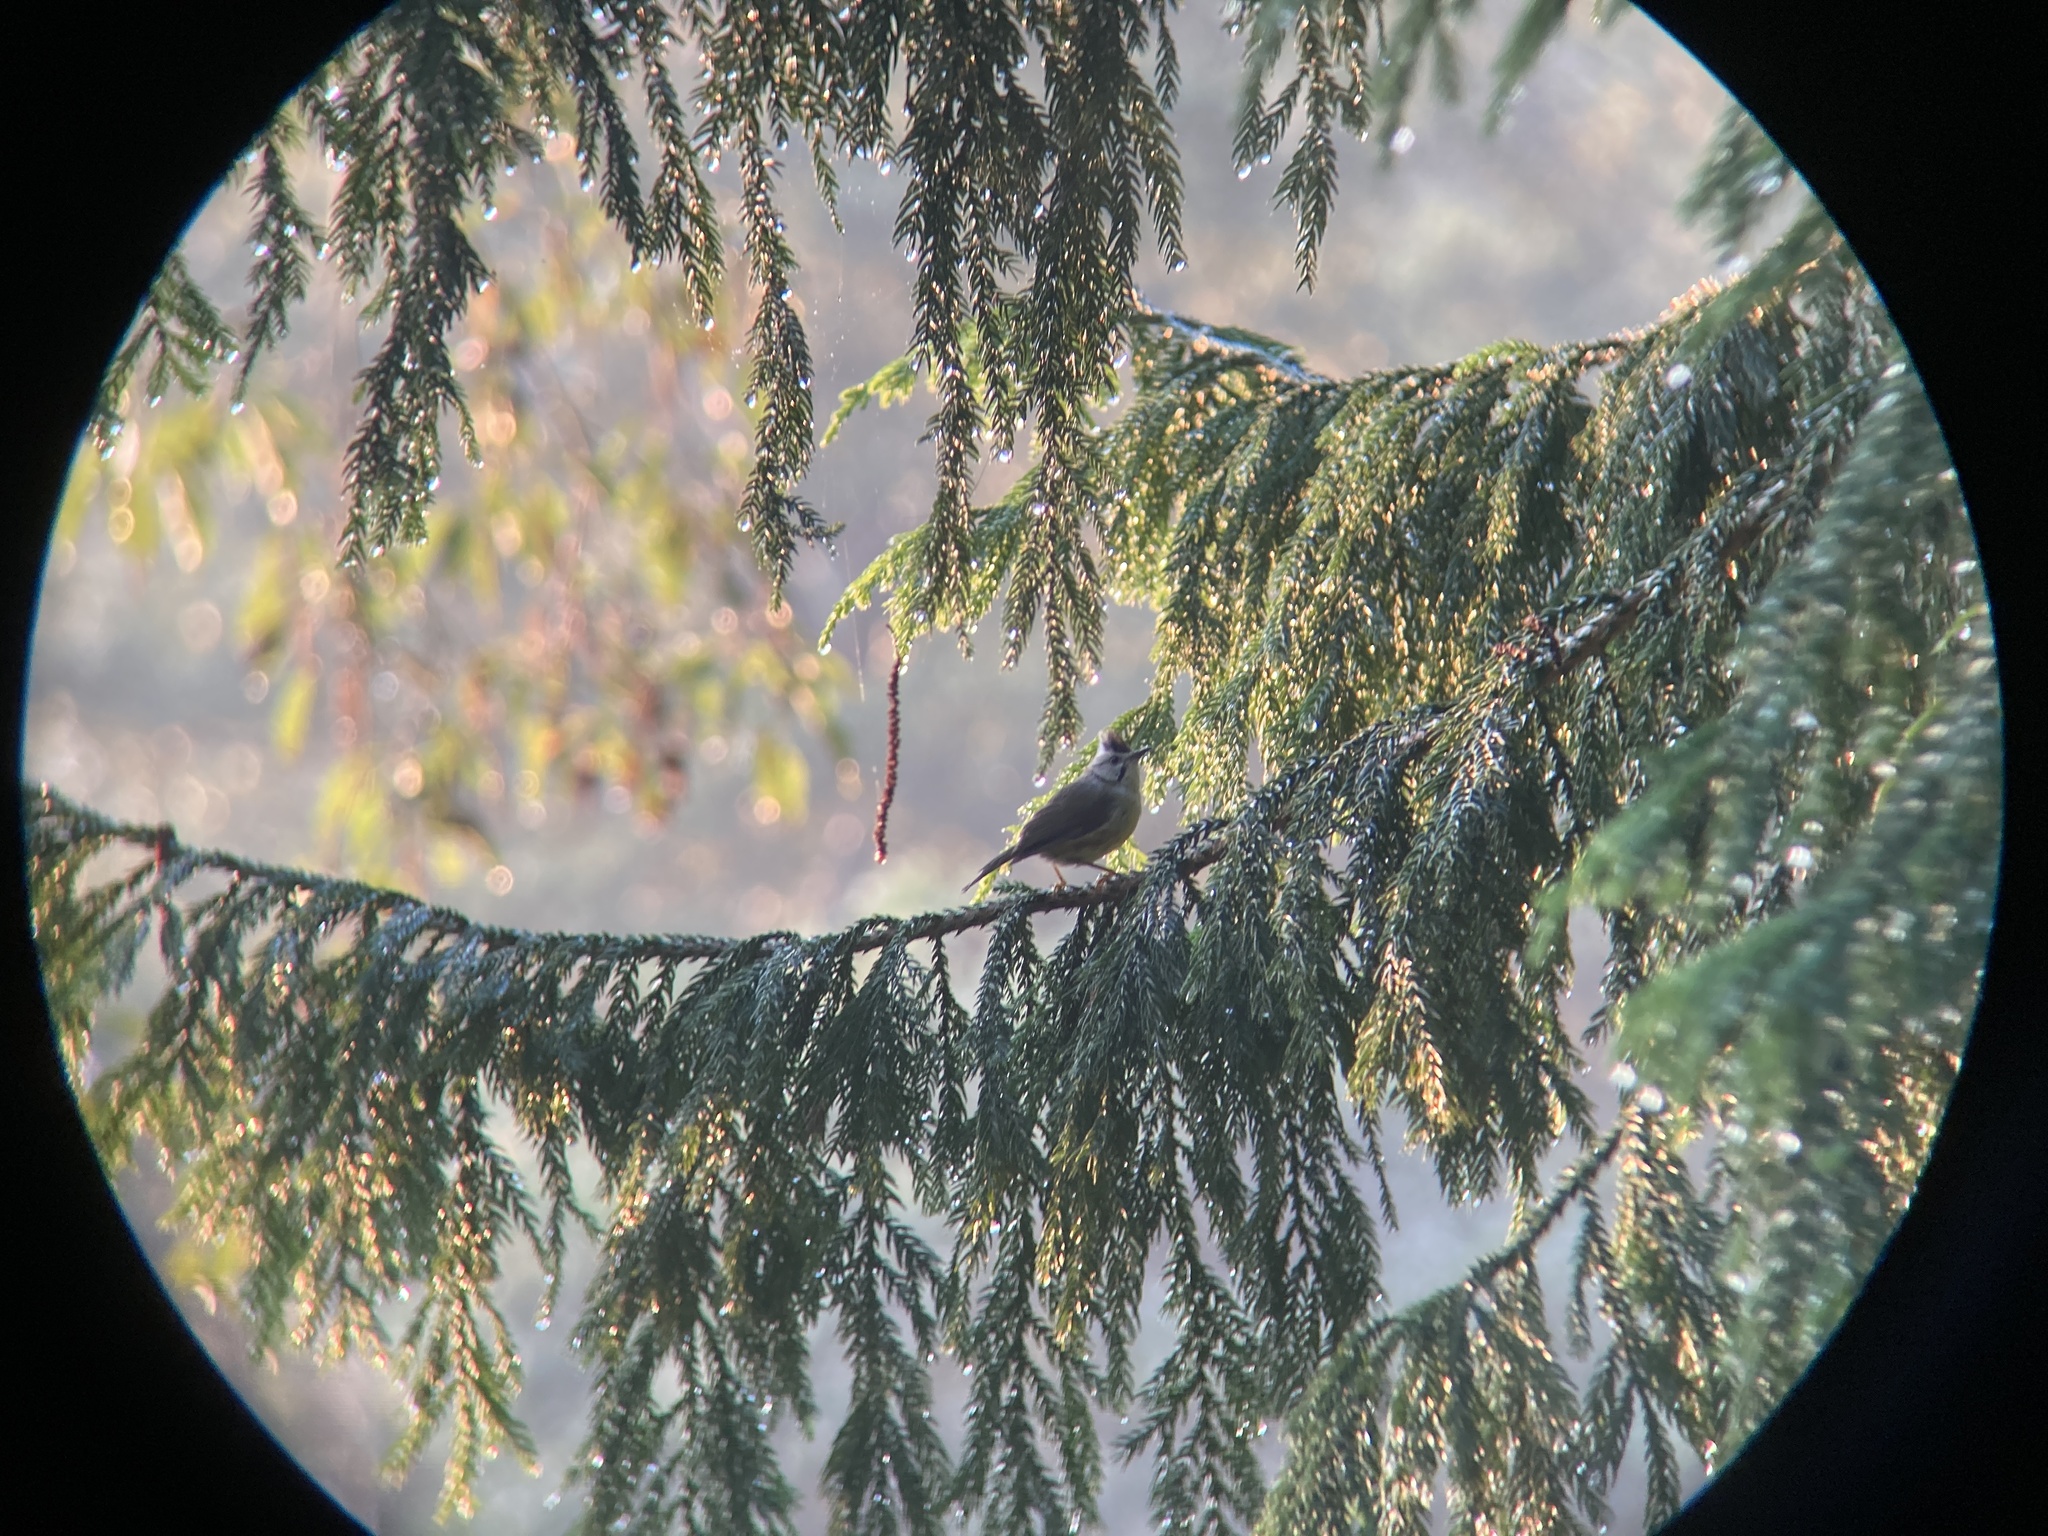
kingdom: Animalia
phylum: Chordata
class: Aves
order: Passeriformes
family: Zosteropidae
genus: Yuhina
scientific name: Yuhina brunneiceps
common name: Taiwan yuhina
